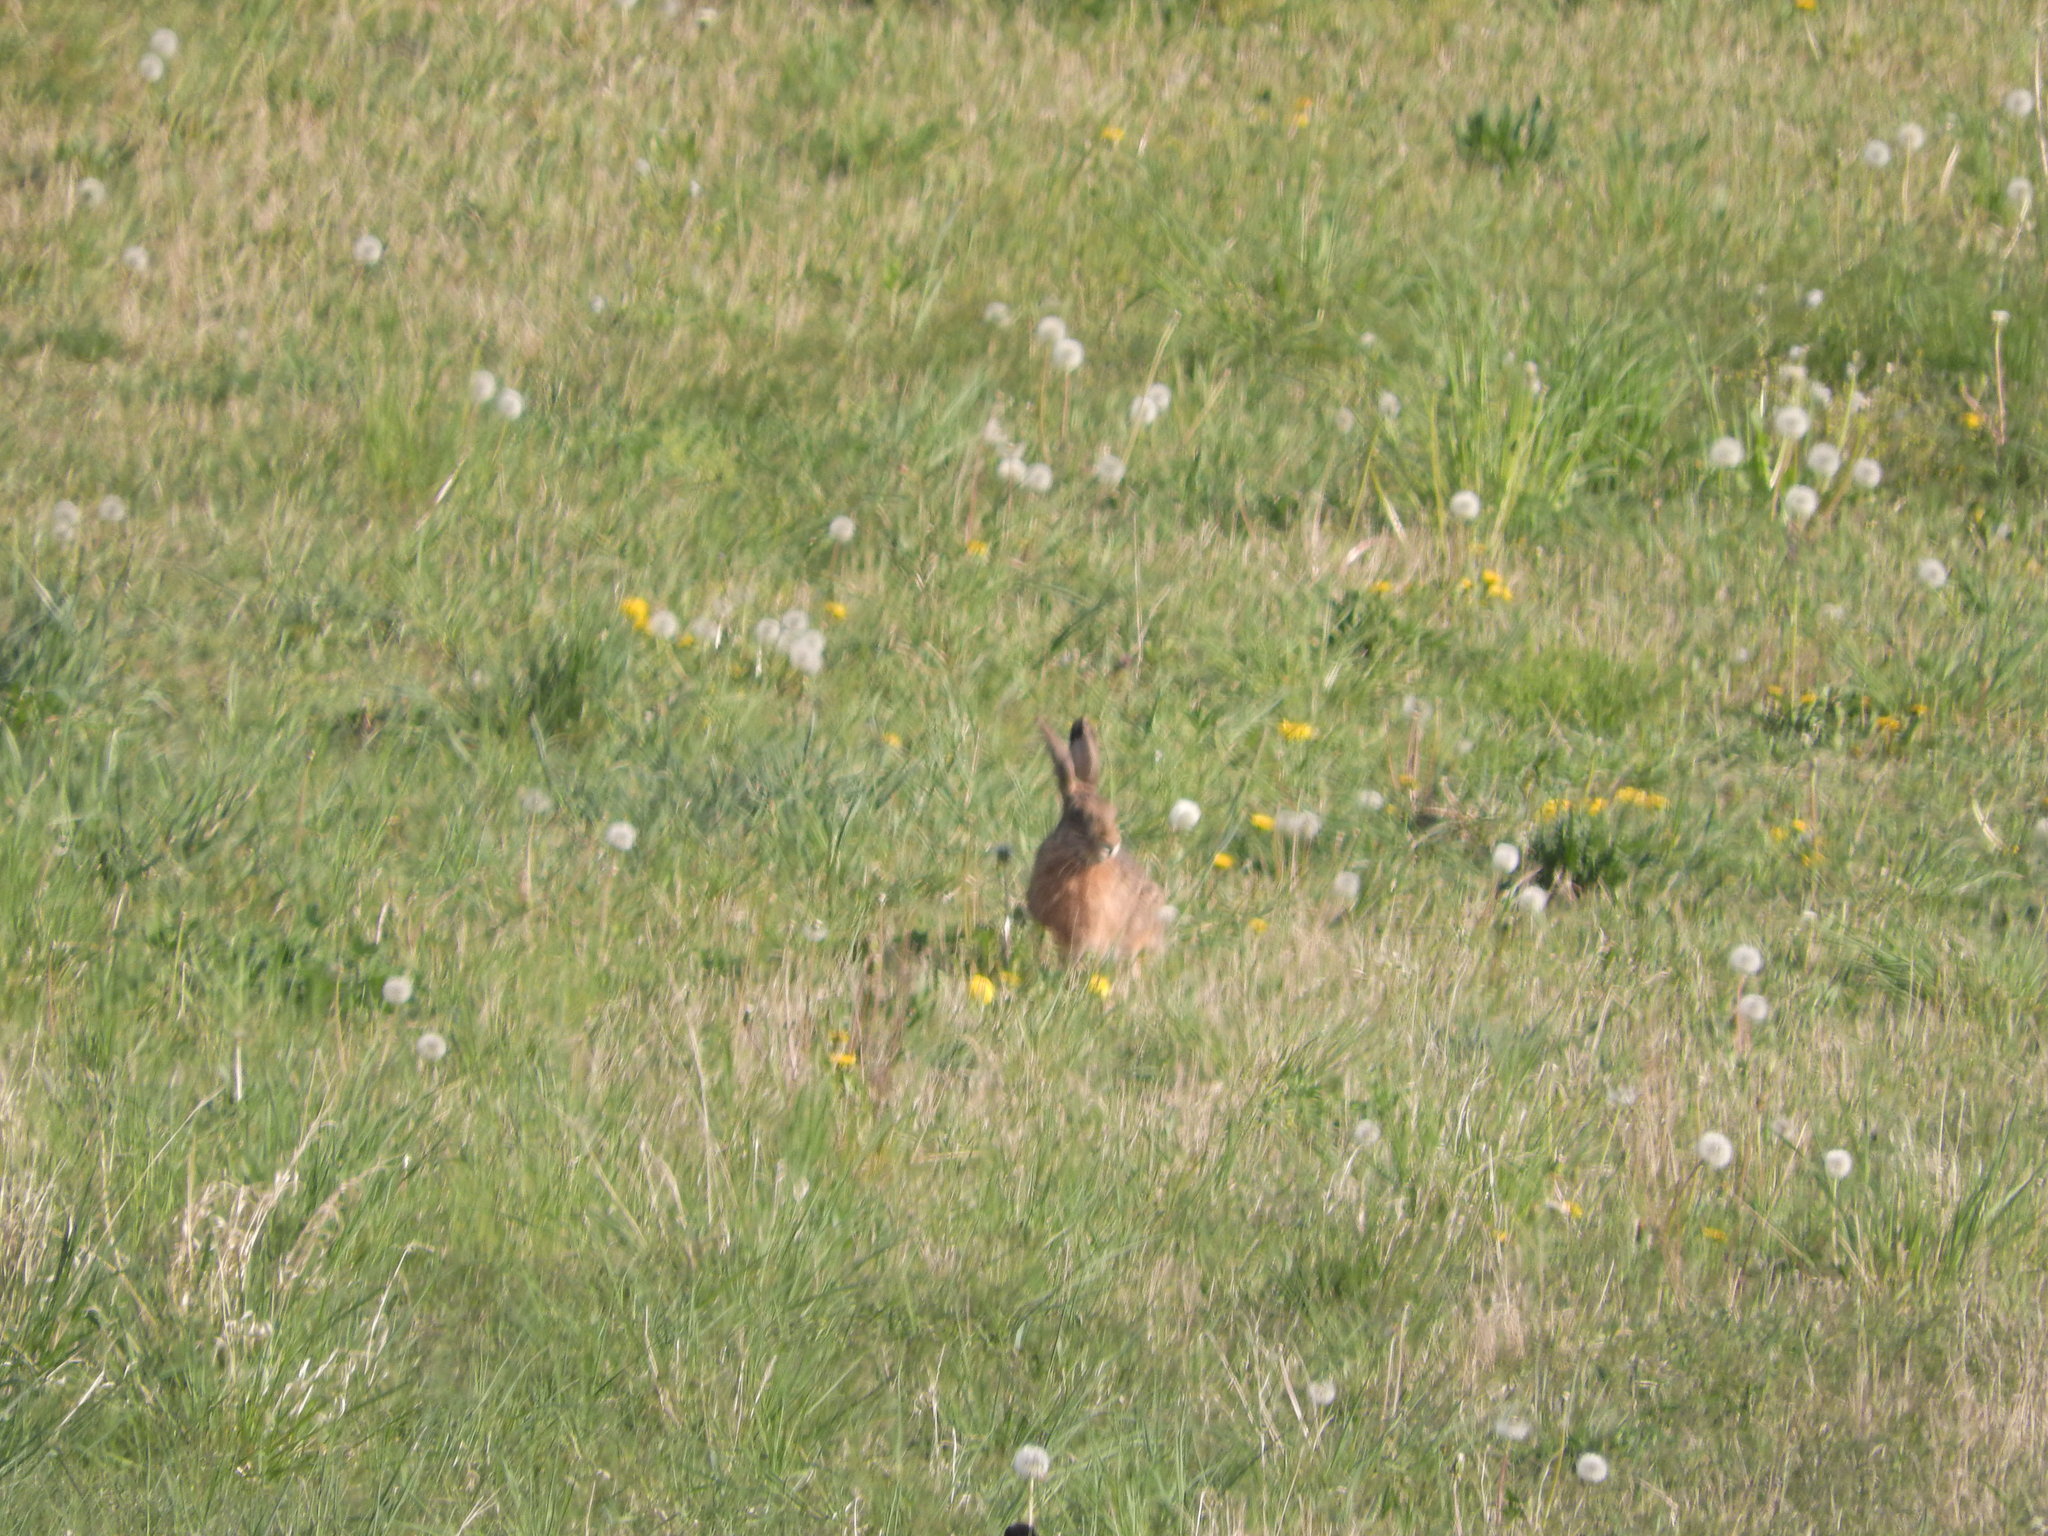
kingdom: Animalia
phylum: Chordata
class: Mammalia
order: Lagomorpha
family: Leporidae
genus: Lepus
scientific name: Lepus europaeus
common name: European hare
